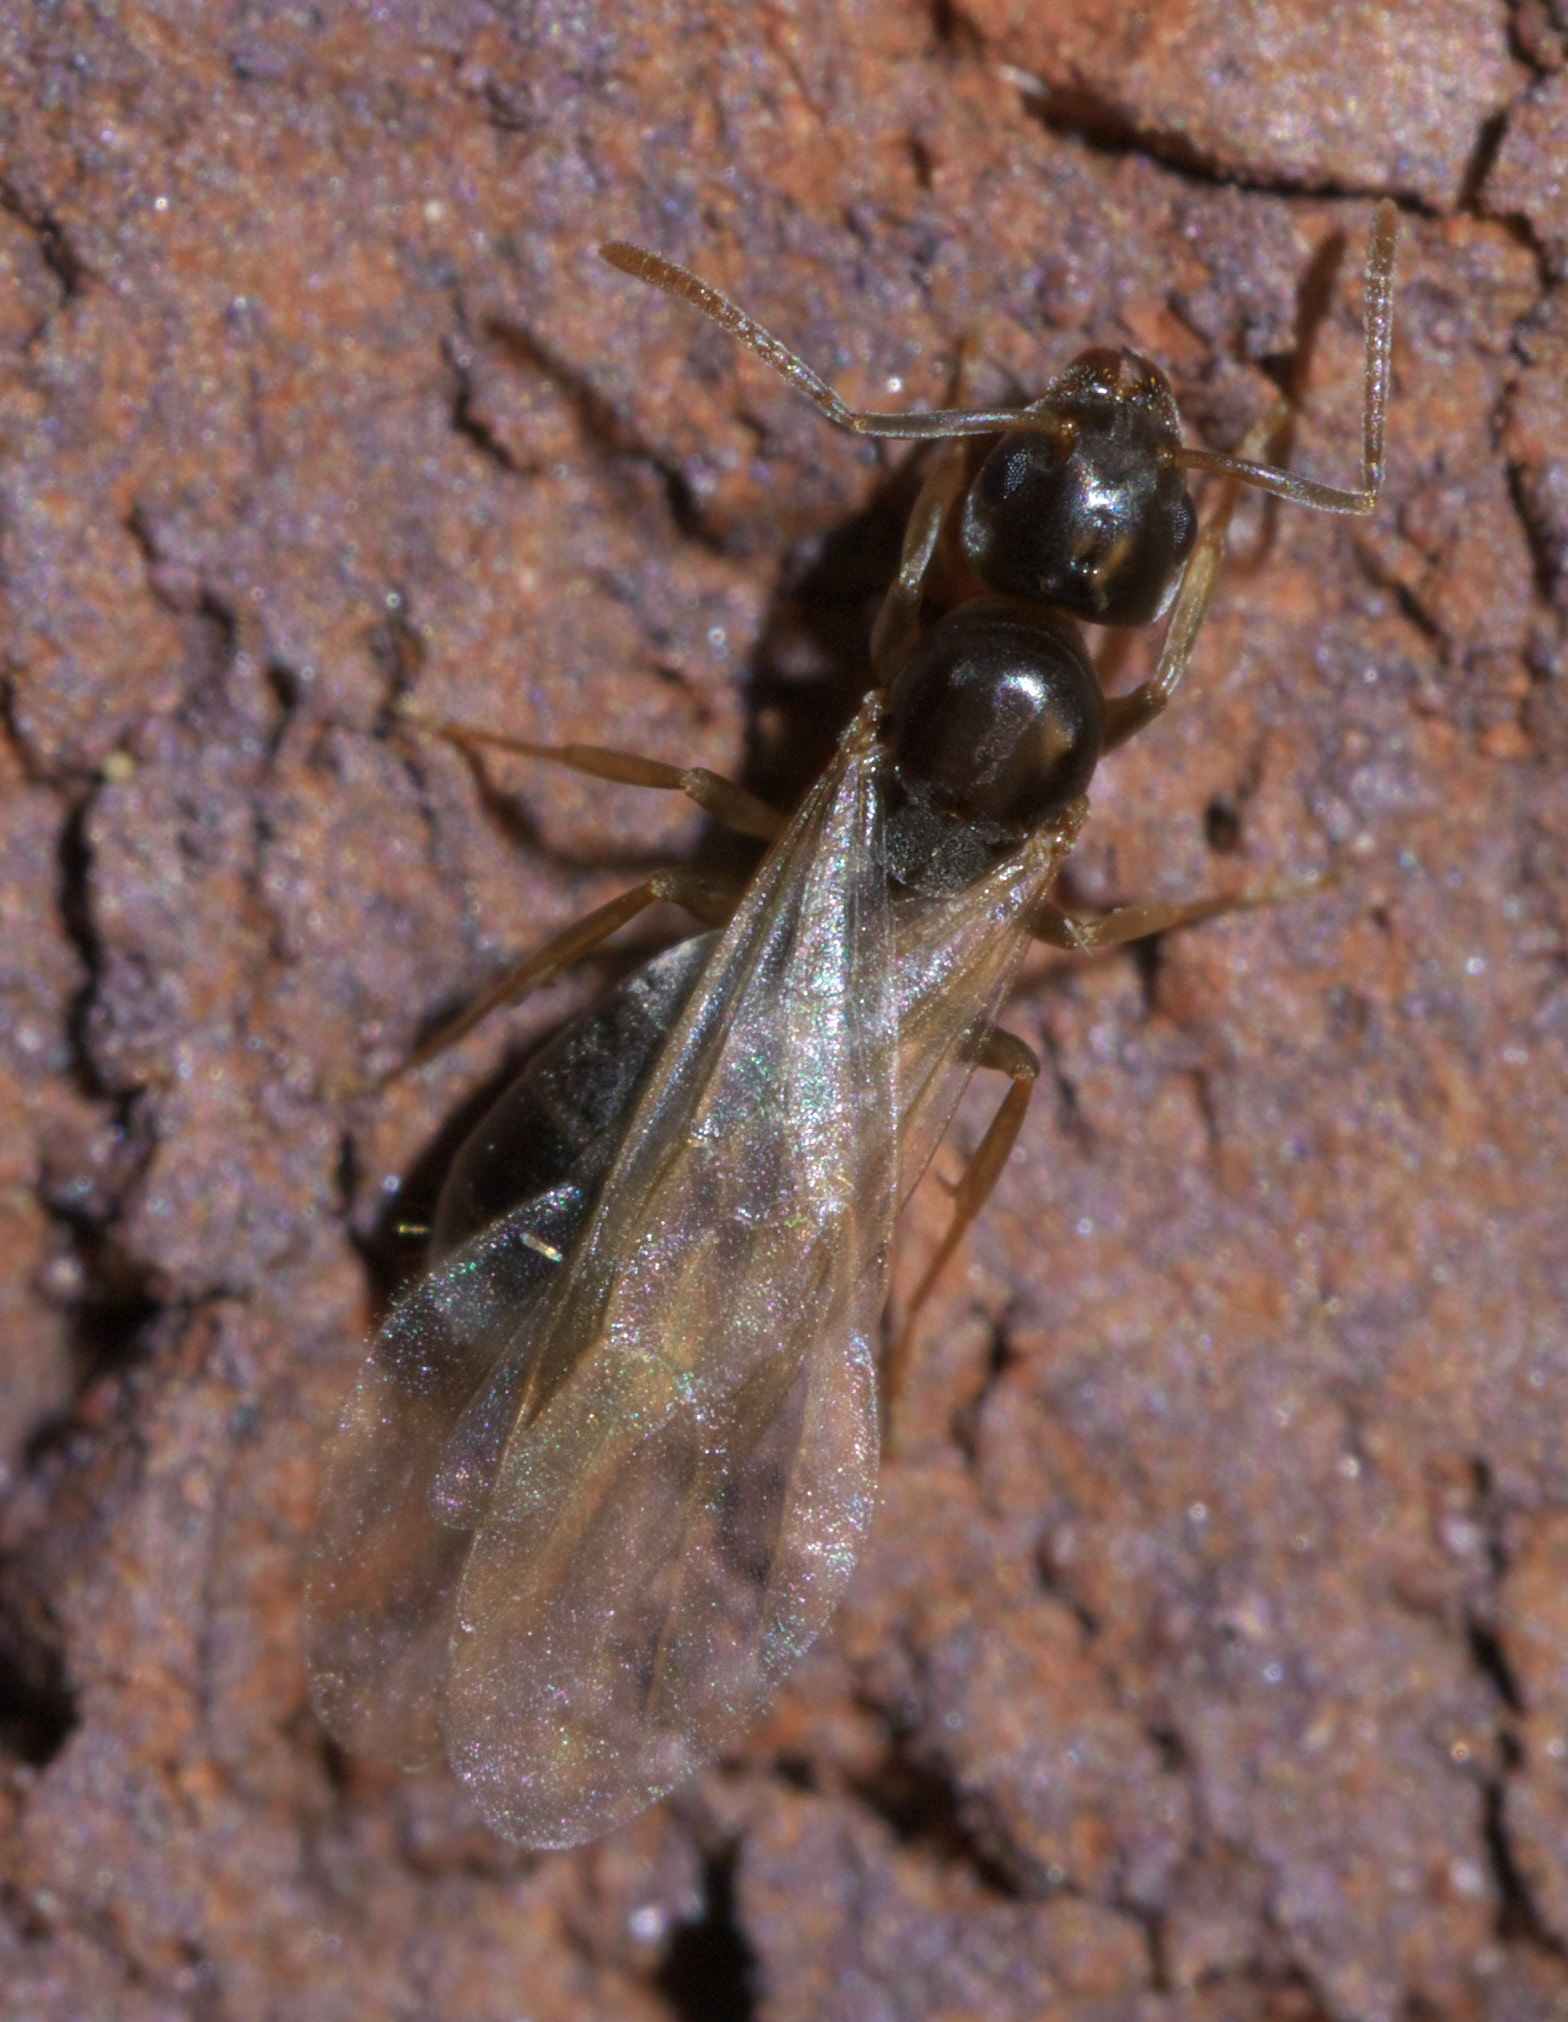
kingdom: Animalia
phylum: Arthropoda
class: Insecta
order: Hymenoptera
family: Formicidae
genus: Tapinoma
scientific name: Tapinoma sessile
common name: Odorous house ant
